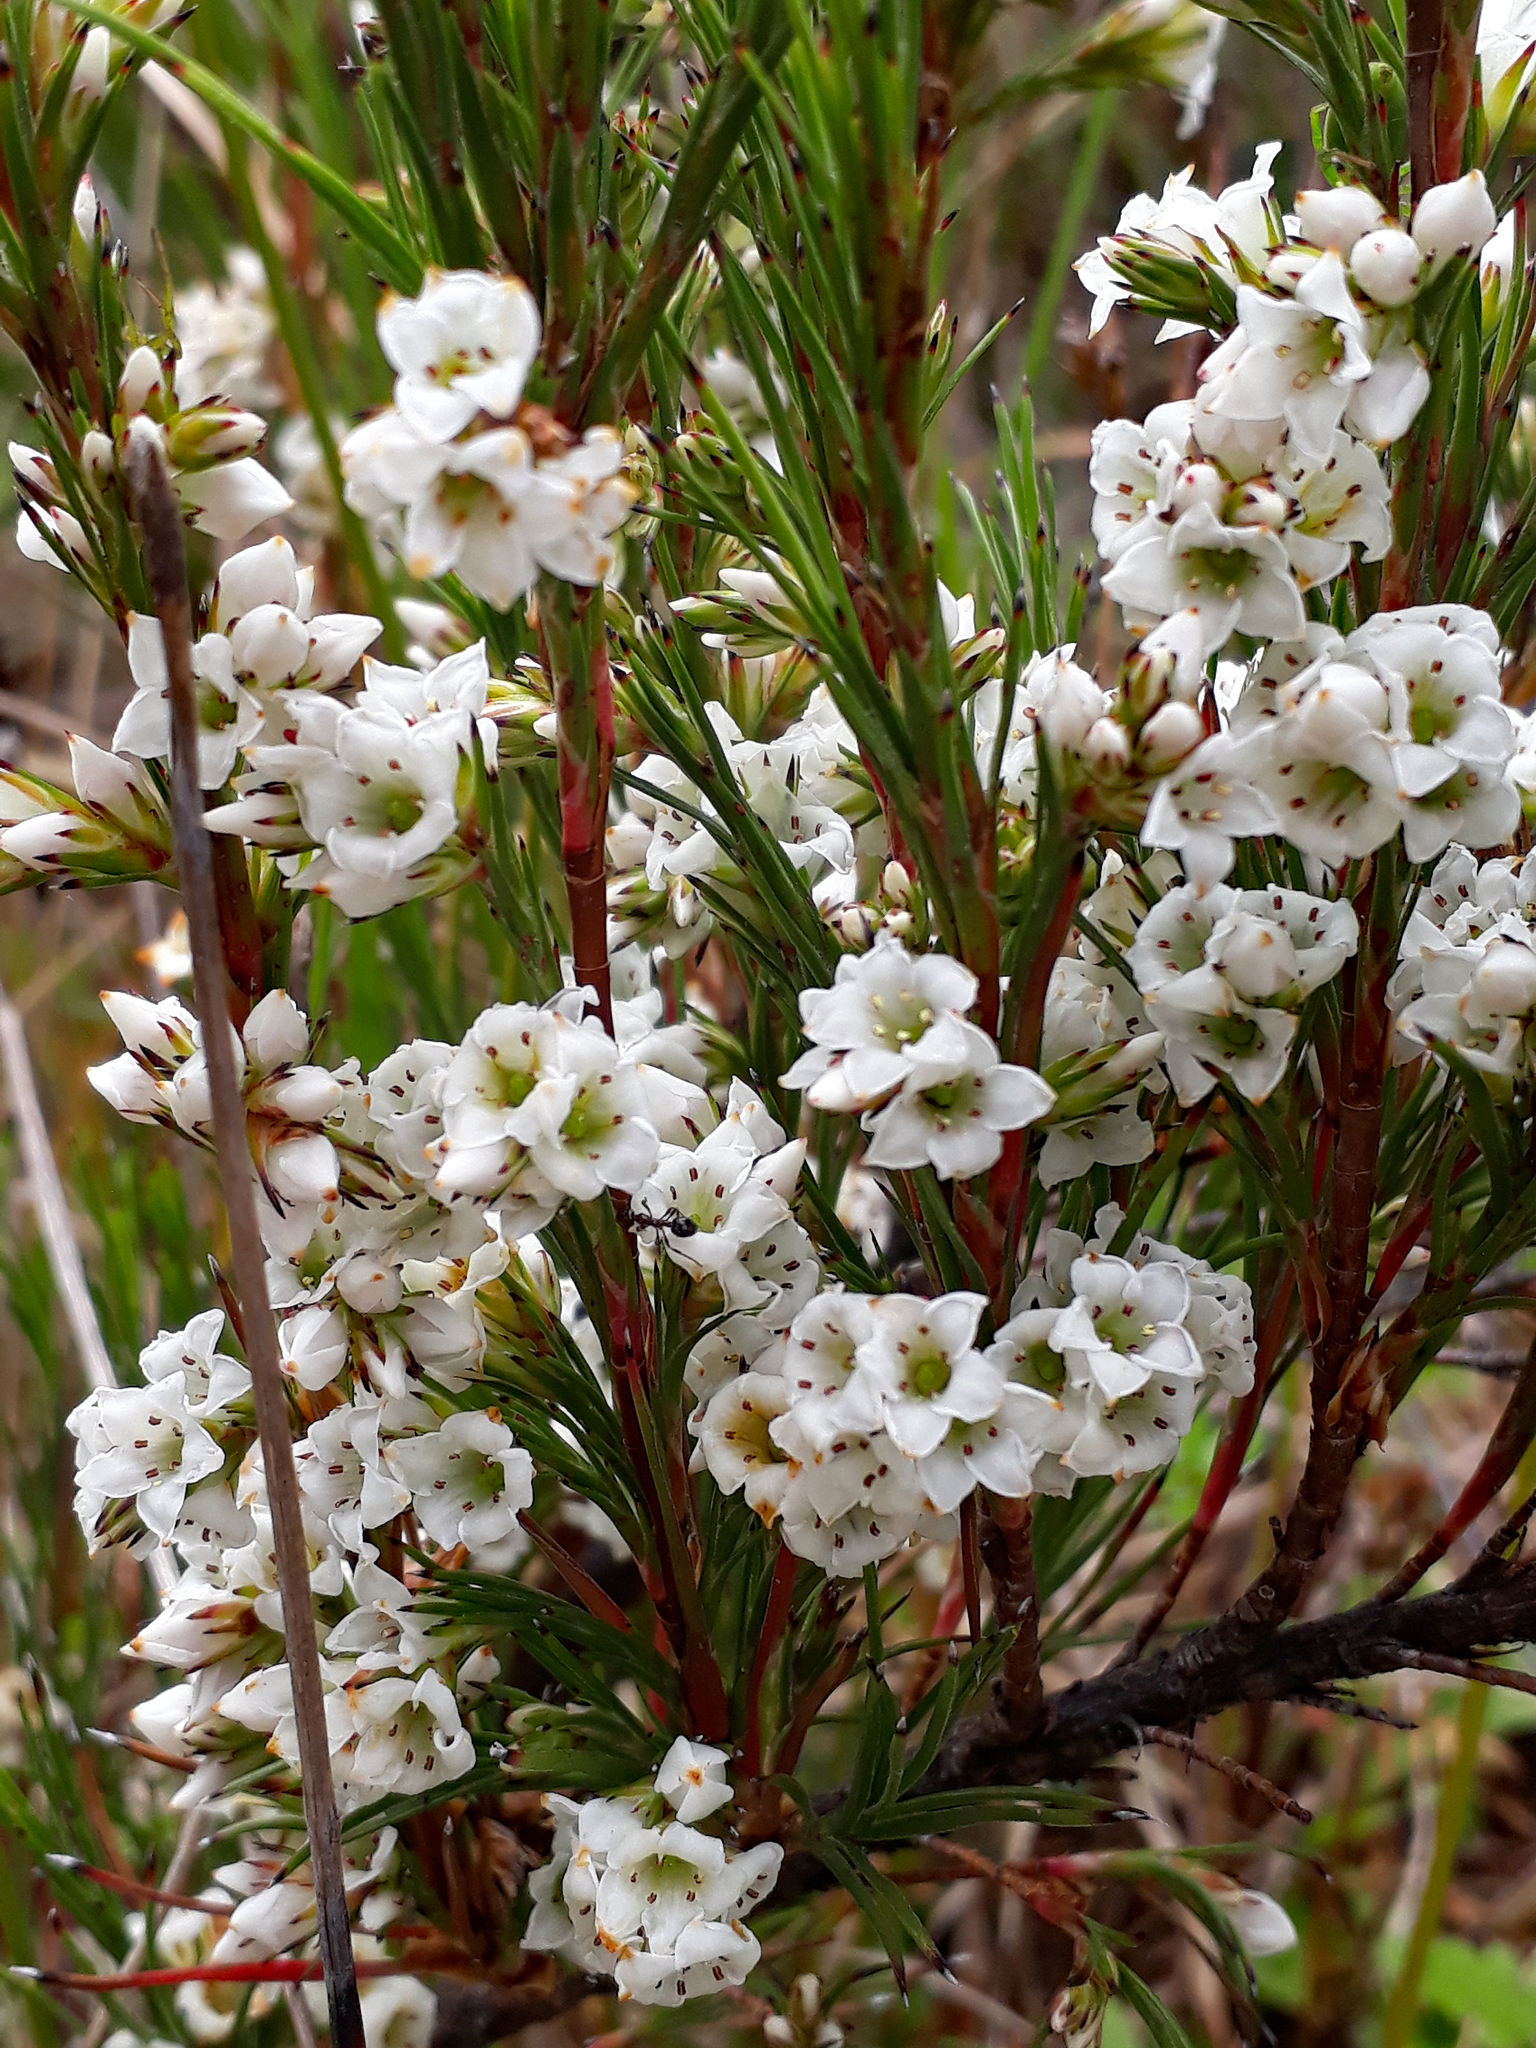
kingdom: Plantae
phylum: Tracheophyta
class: Magnoliopsida
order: Ericales
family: Ericaceae
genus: Dracophyllum
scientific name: Dracophyllum scoparium
